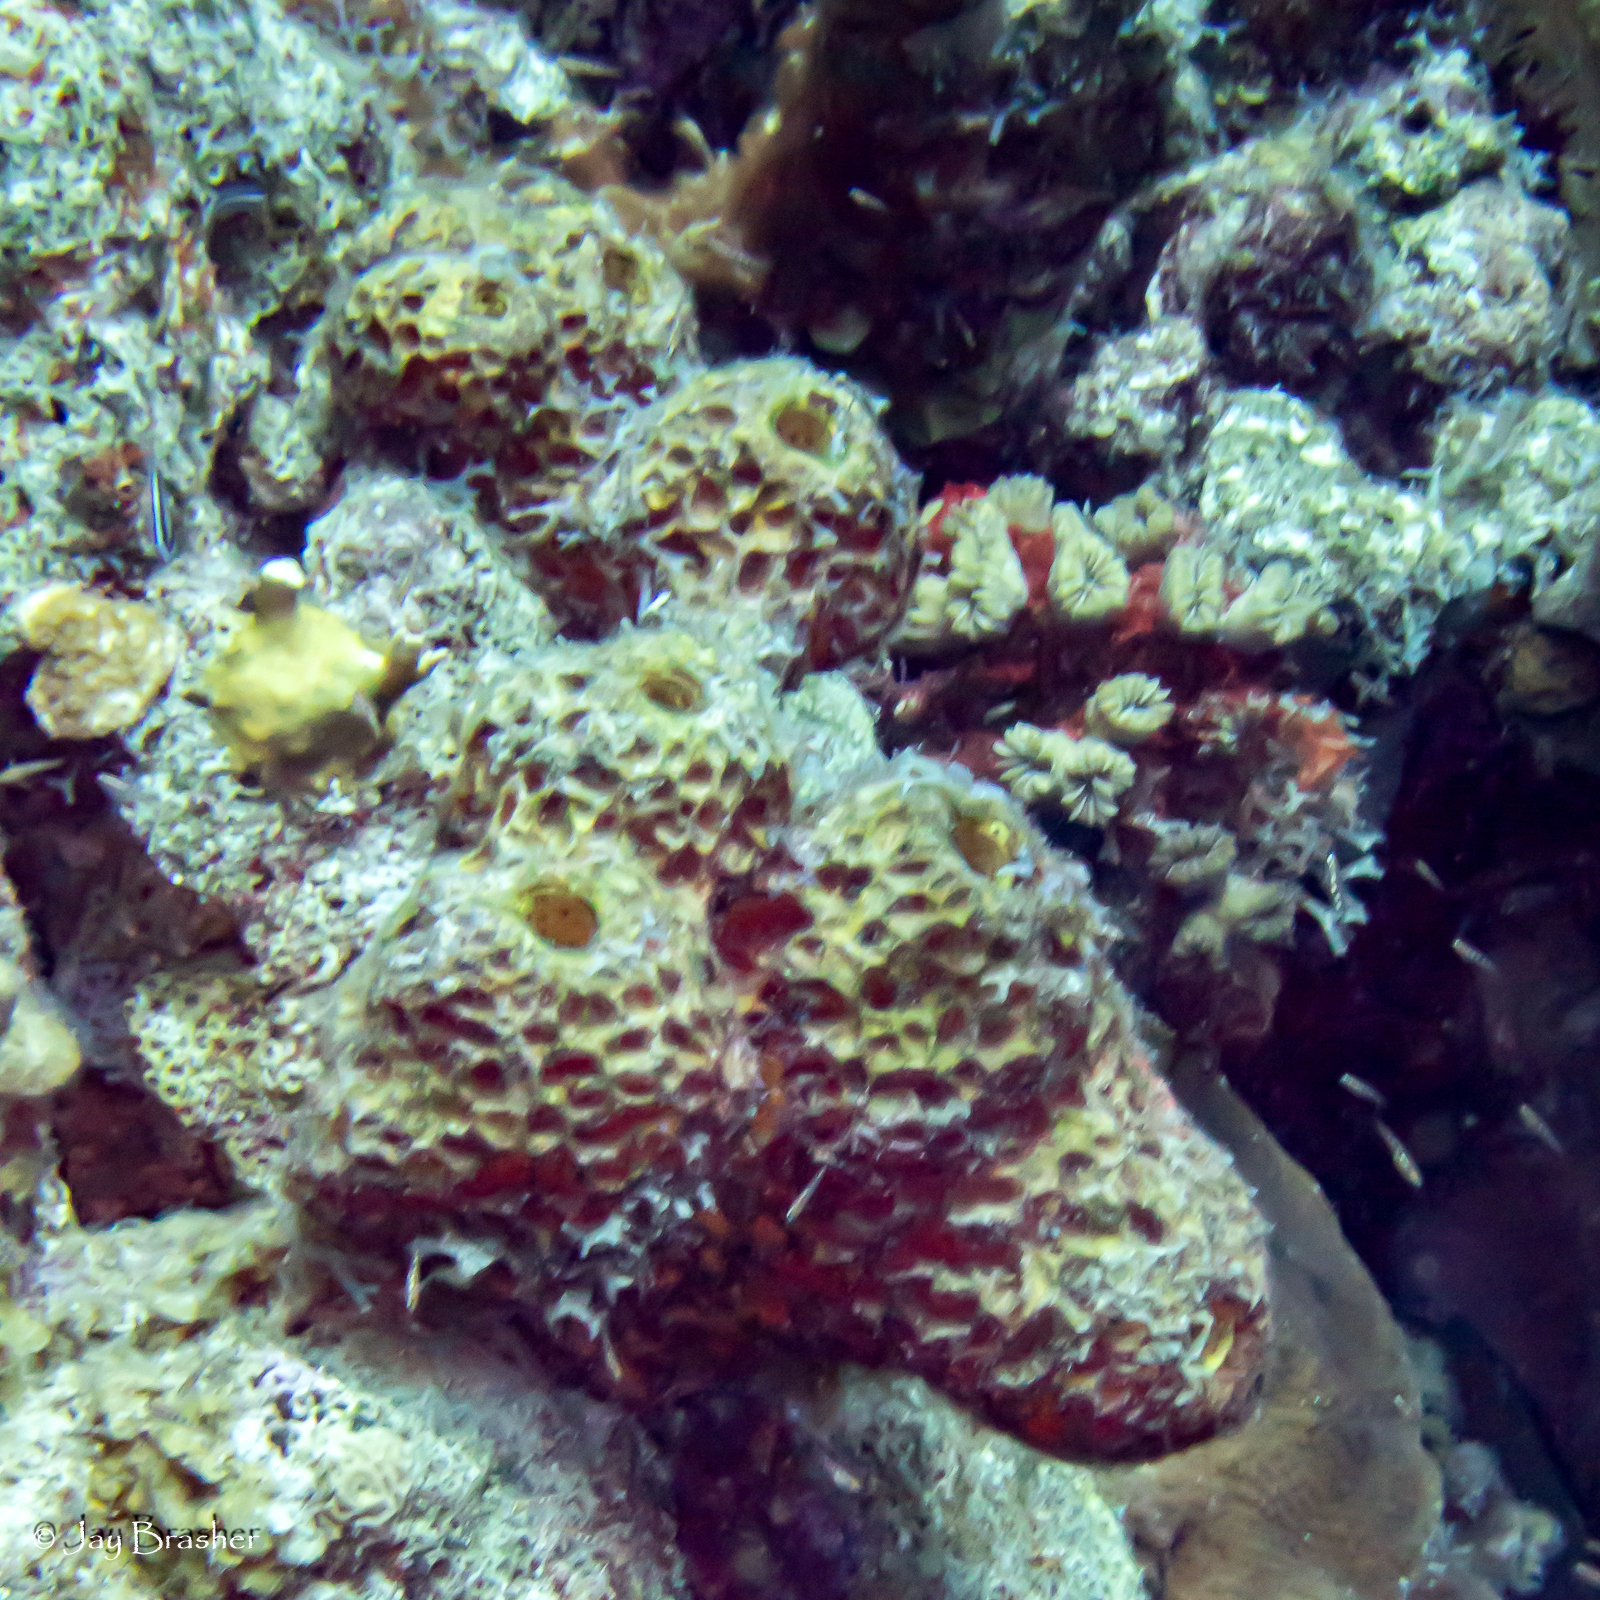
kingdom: Animalia
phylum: Porifera
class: Demospongiae
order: Verongiida
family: Aplysinidae
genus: Verongula
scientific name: Verongula rigida
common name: Pitted sponge
